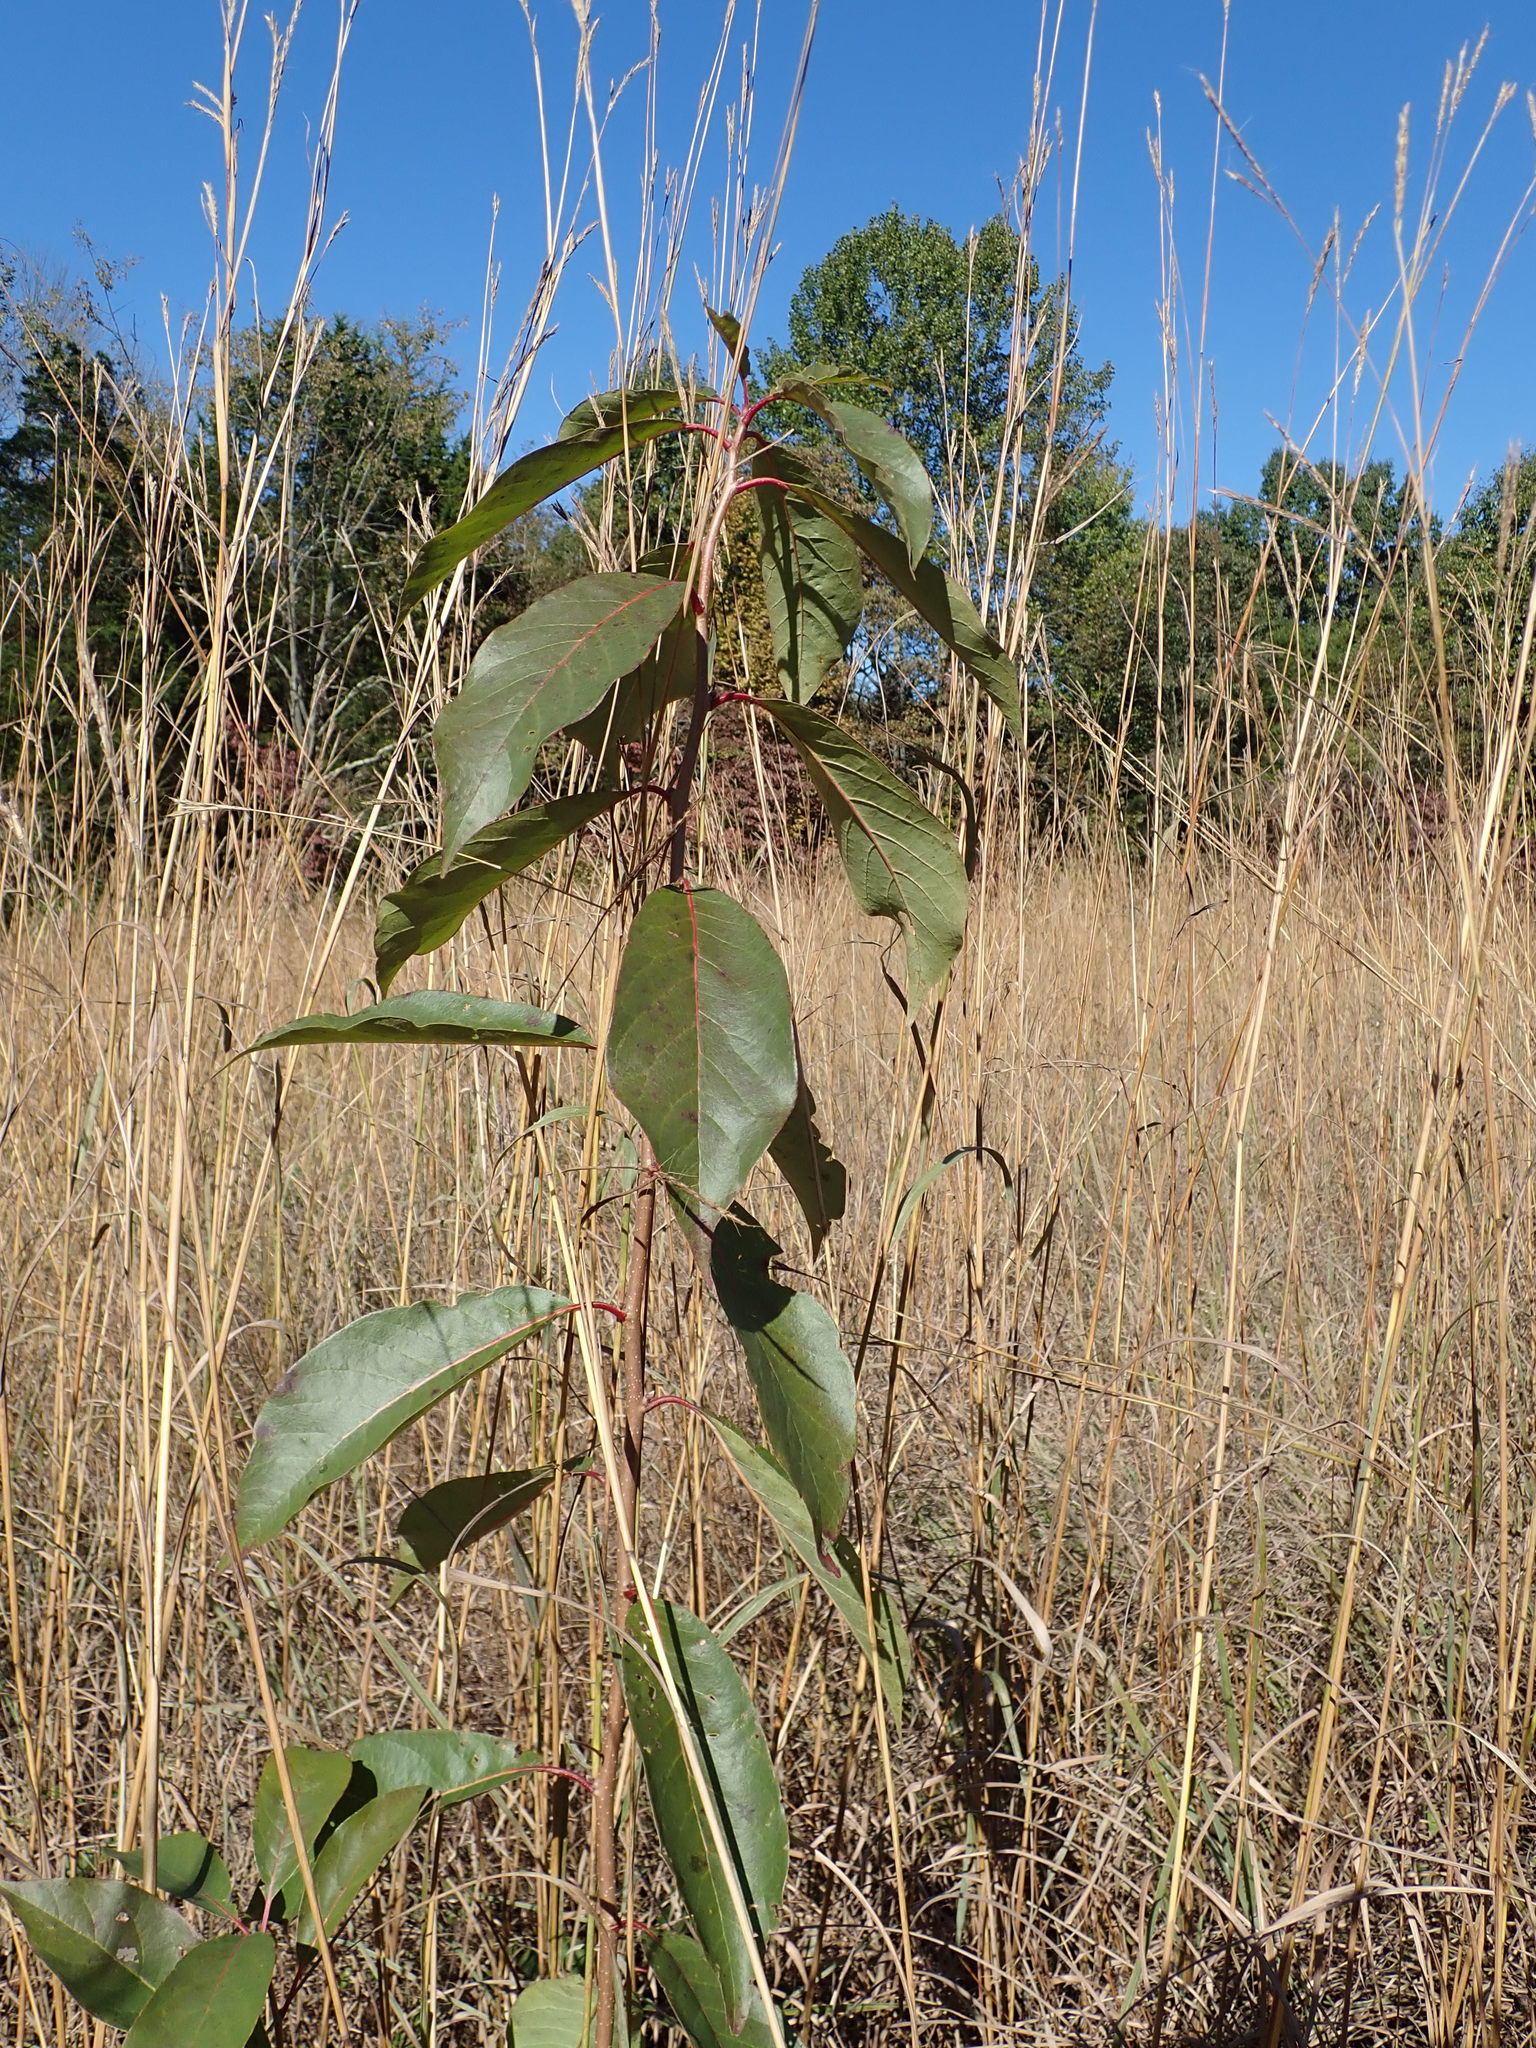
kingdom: Plantae
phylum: Tracheophyta
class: Magnoliopsida
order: Ericales
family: Ebenaceae
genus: Diospyros
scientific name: Diospyros virginiana
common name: Persimmon
